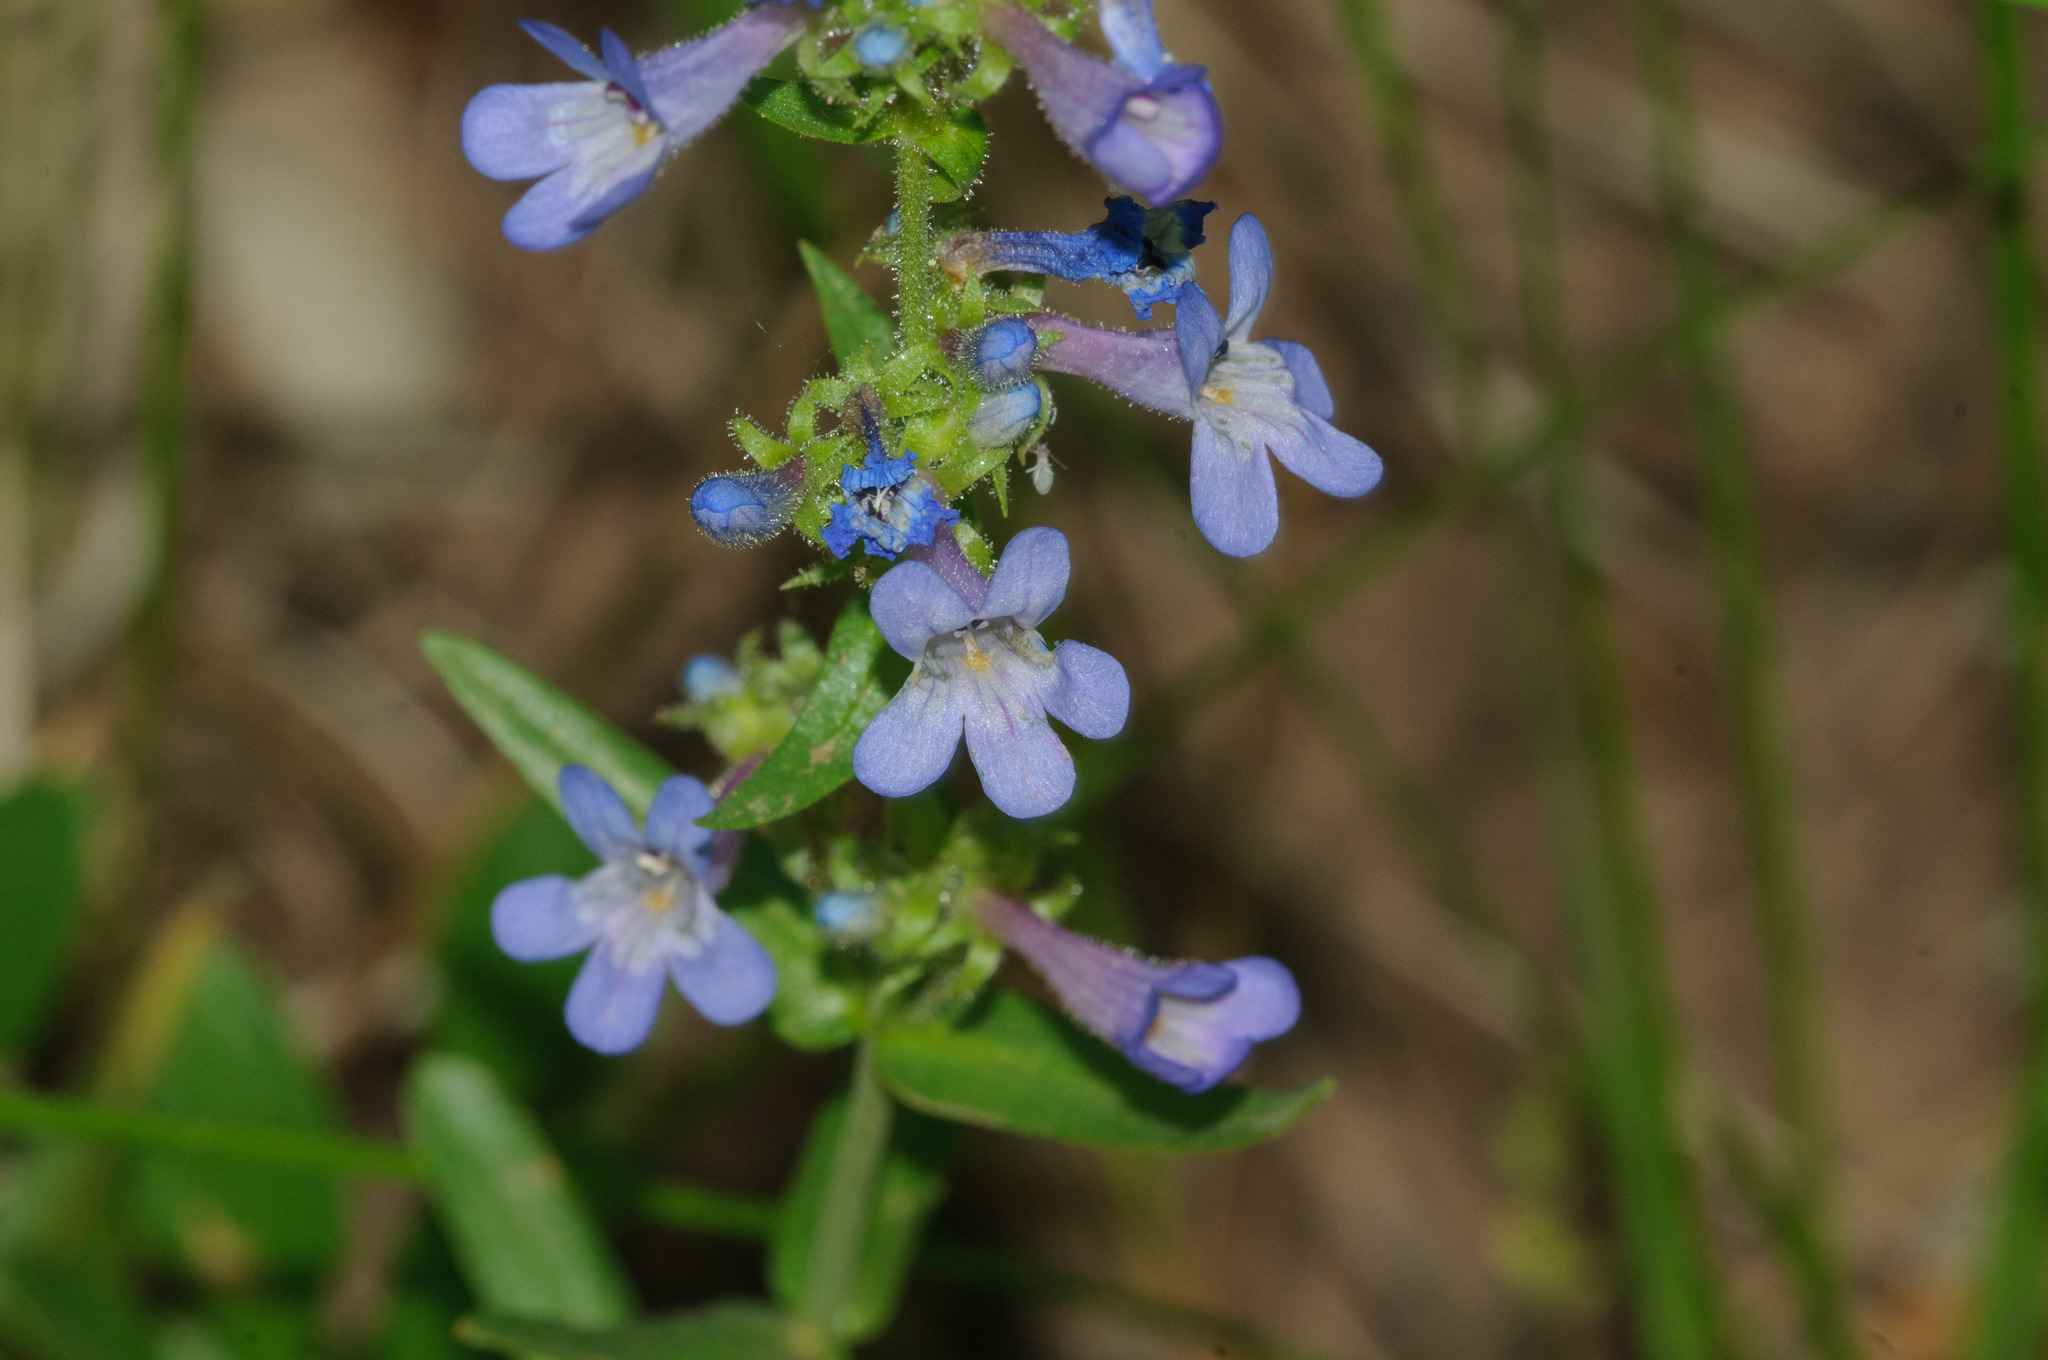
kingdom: Plantae
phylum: Tracheophyta
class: Magnoliopsida
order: Lamiales
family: Plantaginaceae
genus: Penstemon
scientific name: Penstemon humilis
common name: Low penstemon
